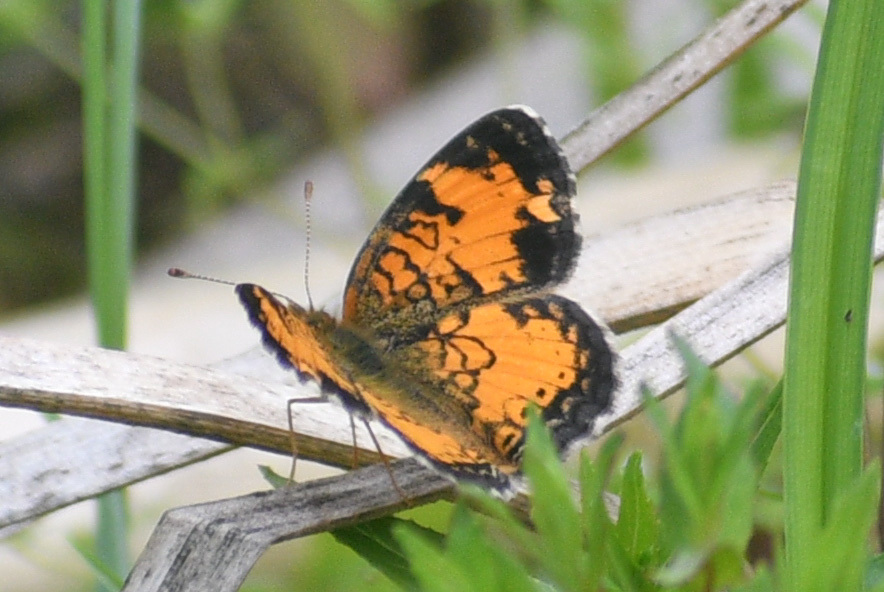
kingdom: Animalia
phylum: Arthropoda
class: Insecta
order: Lepidoptera
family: Nymphalidae
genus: Phyciodes
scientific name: Phyciodes tharos
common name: Pearl crescent
